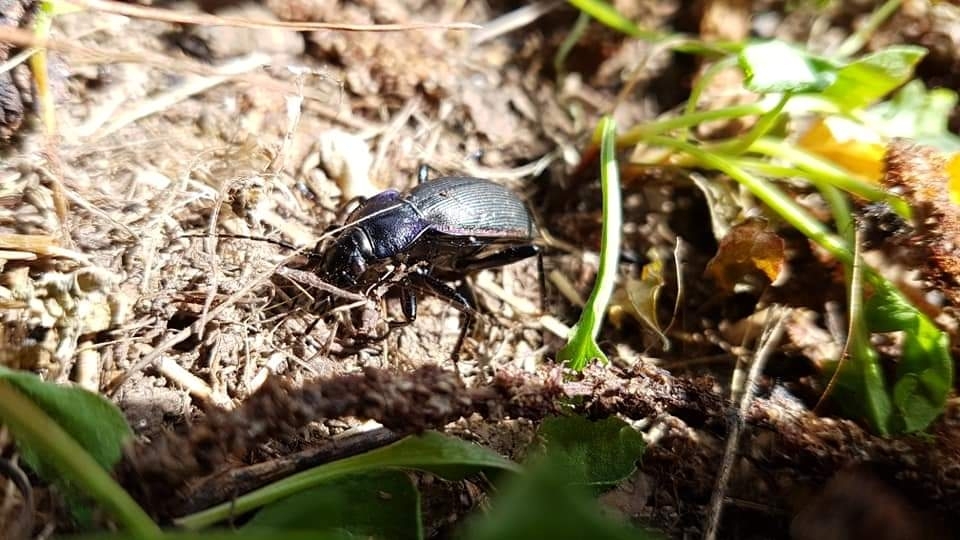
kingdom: Animalia
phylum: Arthropoda
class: Insecta
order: Coleoptera
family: Carabidae
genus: Carabus
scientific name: Carabus purpurascens
